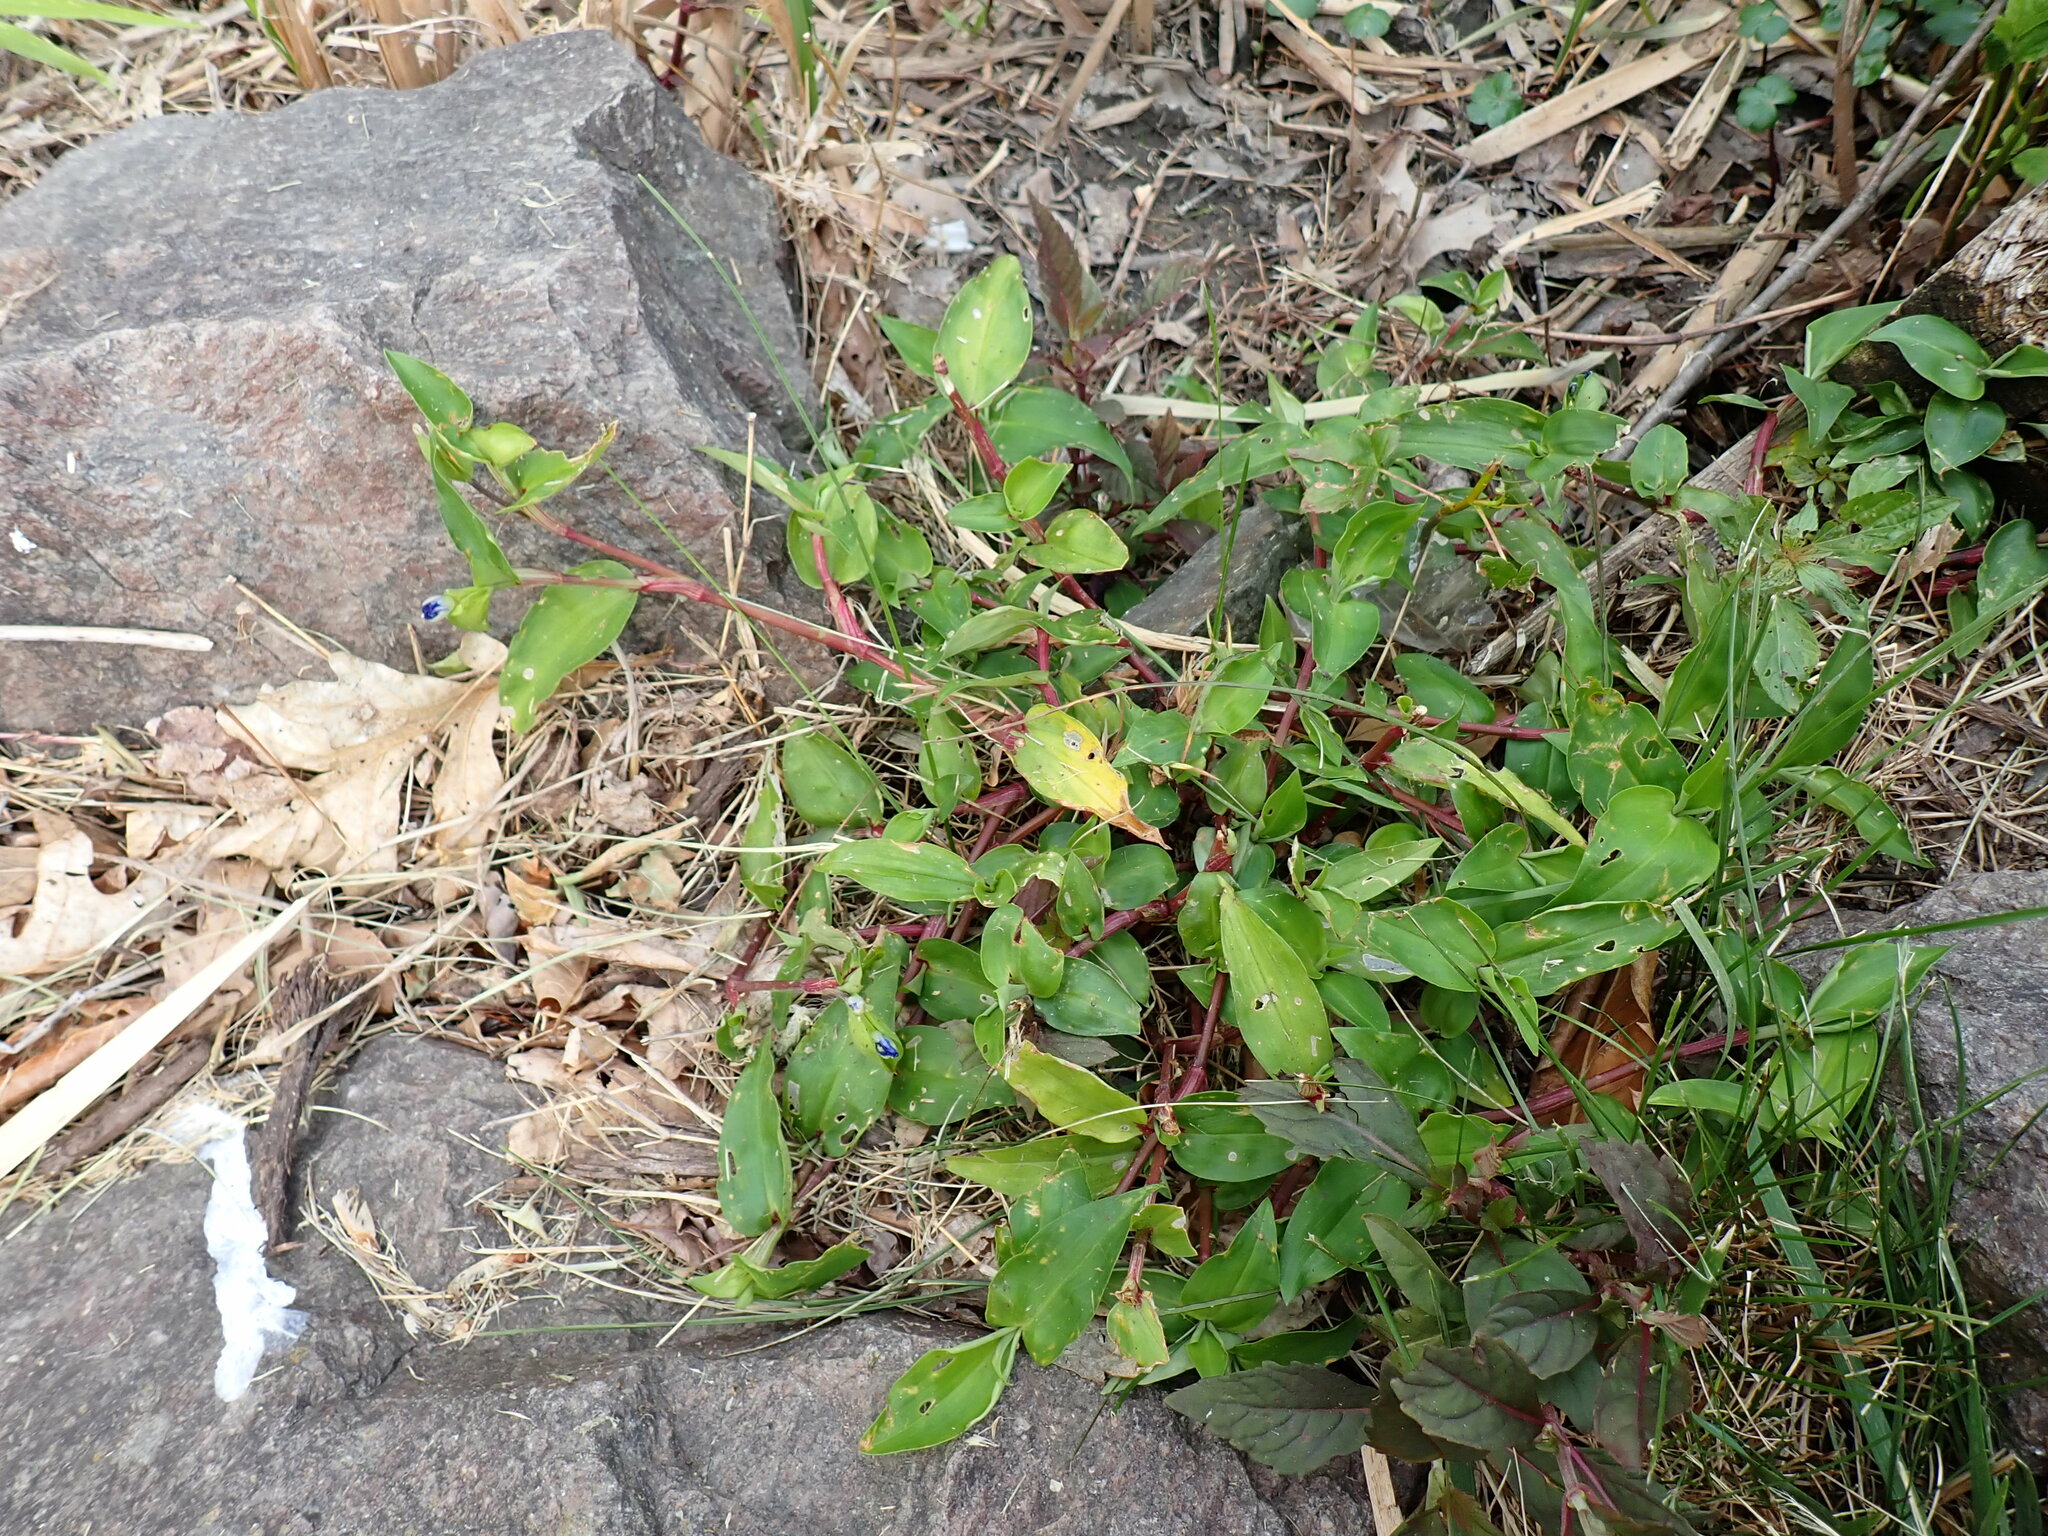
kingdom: Plantae
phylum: Tracheophyta
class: Liliopsida
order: Commelinales
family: Commelinaceae
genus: Commelina
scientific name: Commelina communis
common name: Asiatic dayflower
